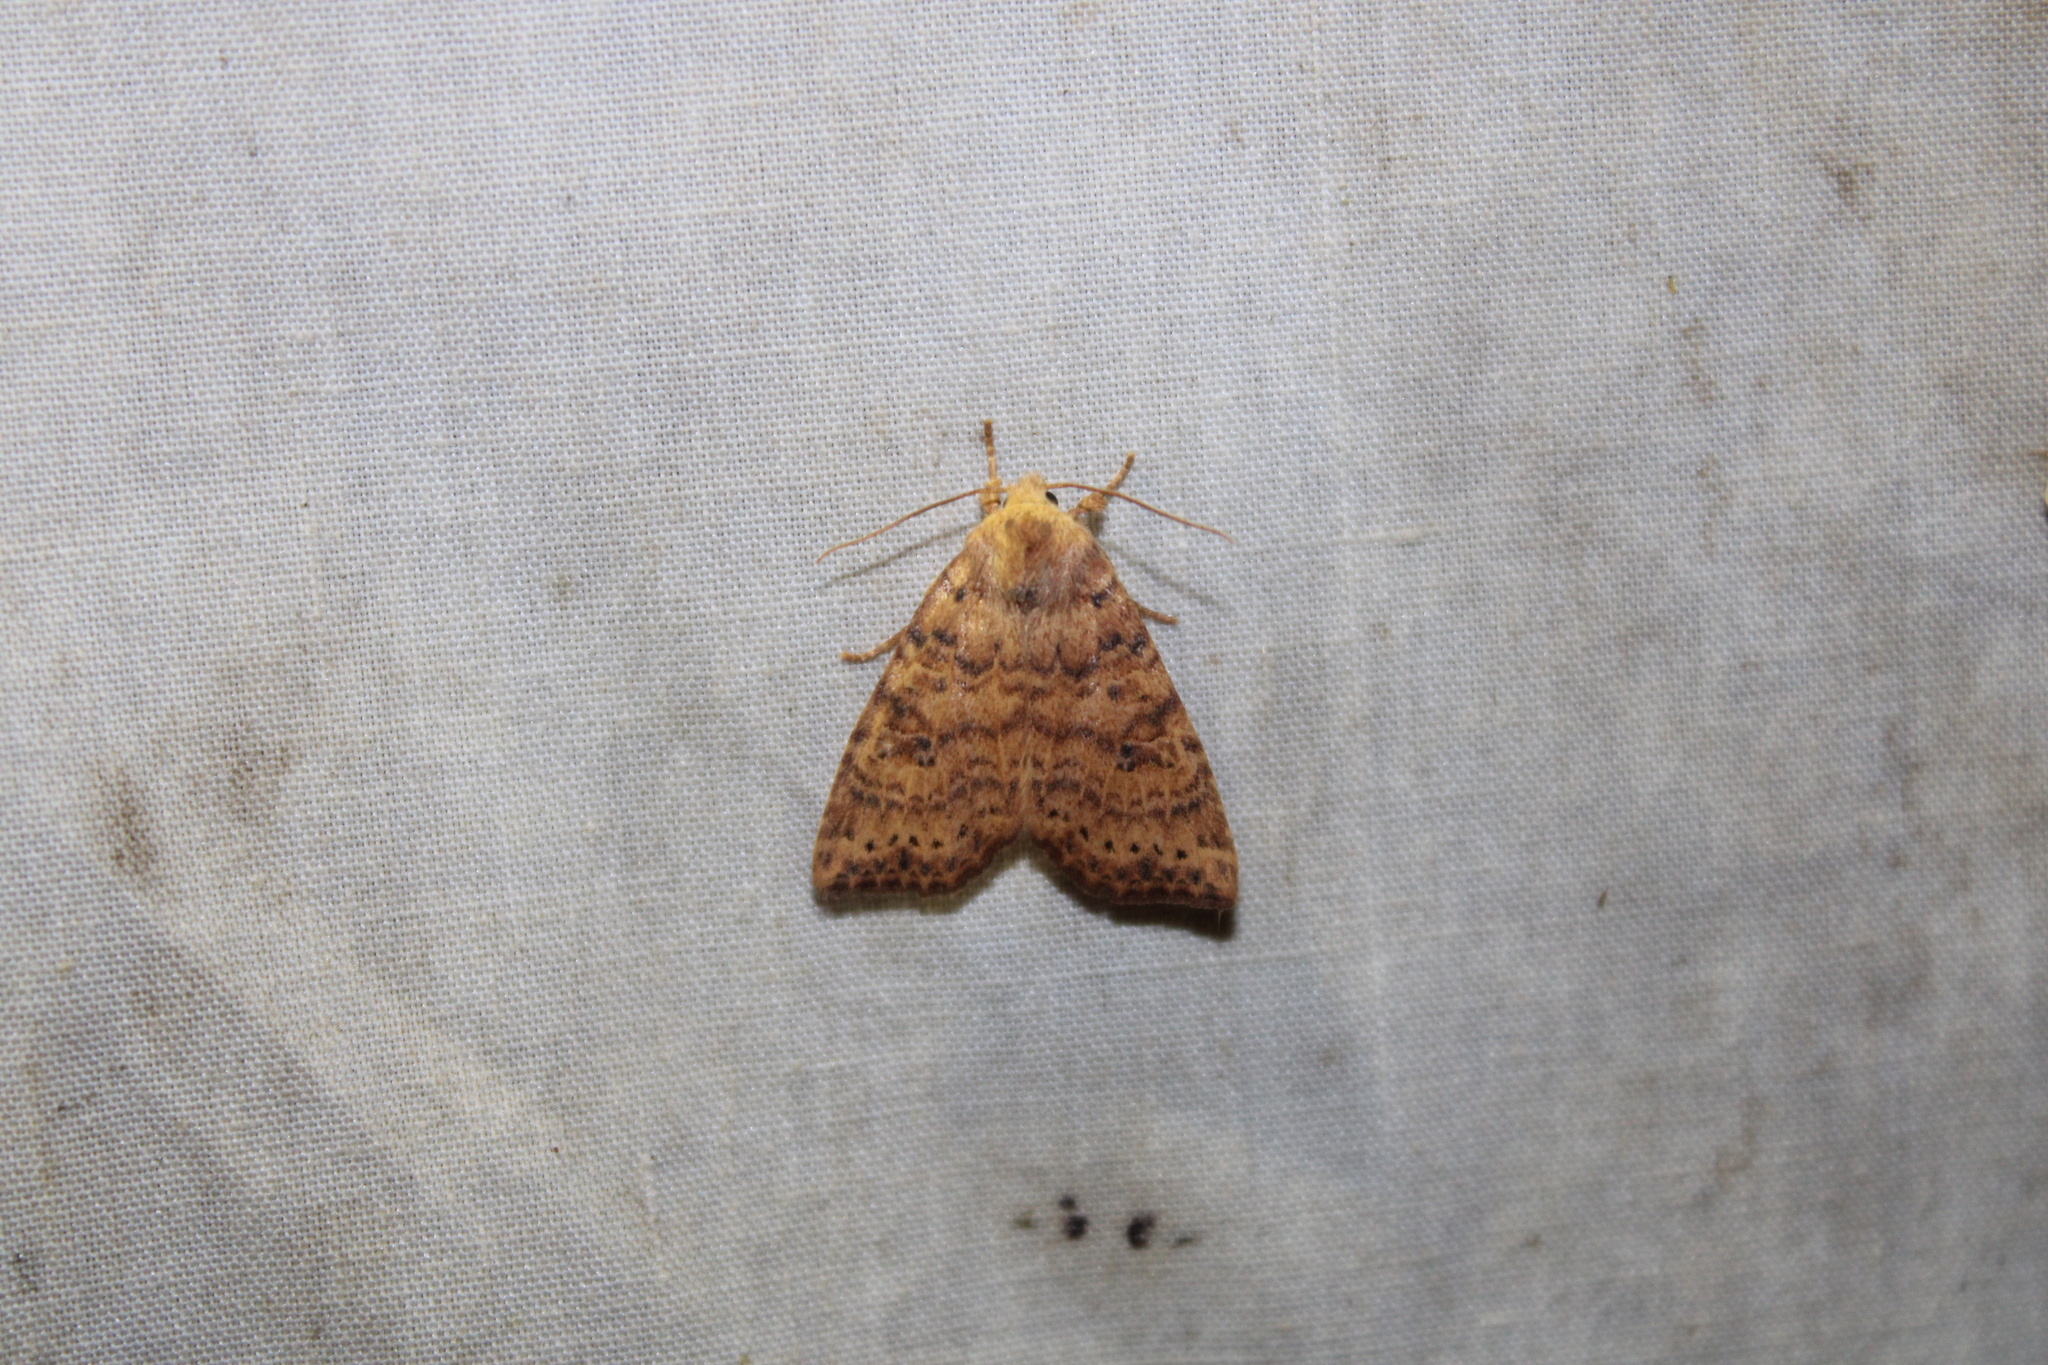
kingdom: Animalia
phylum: Arthropoda
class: Insecta
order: Lepidoptera
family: Noctuidae
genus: Anathix
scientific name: Anathix ralla
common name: Dotted sallow
